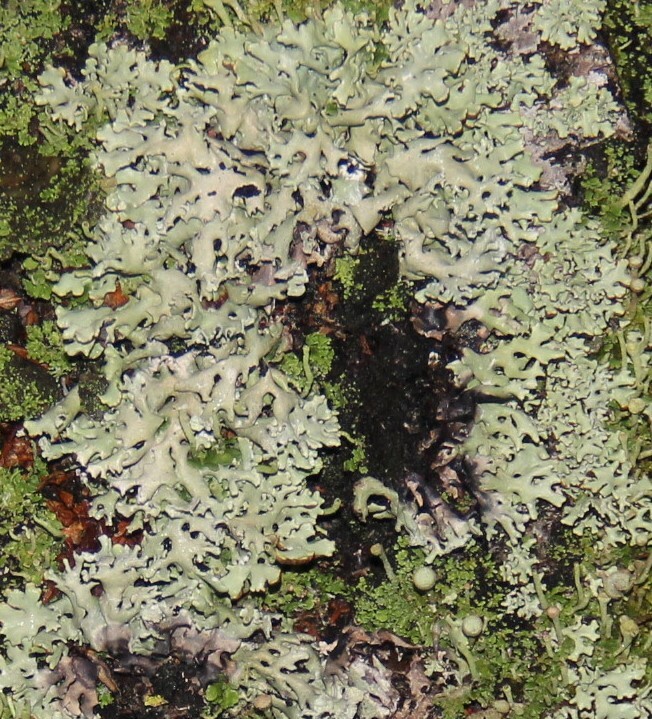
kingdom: Fungi
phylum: Ascomycota
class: Lecanoromycetes
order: Lecanorales
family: Parmeliaceae
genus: Hypogymnia
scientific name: Hypogymnia physodes
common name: Dark crottle
